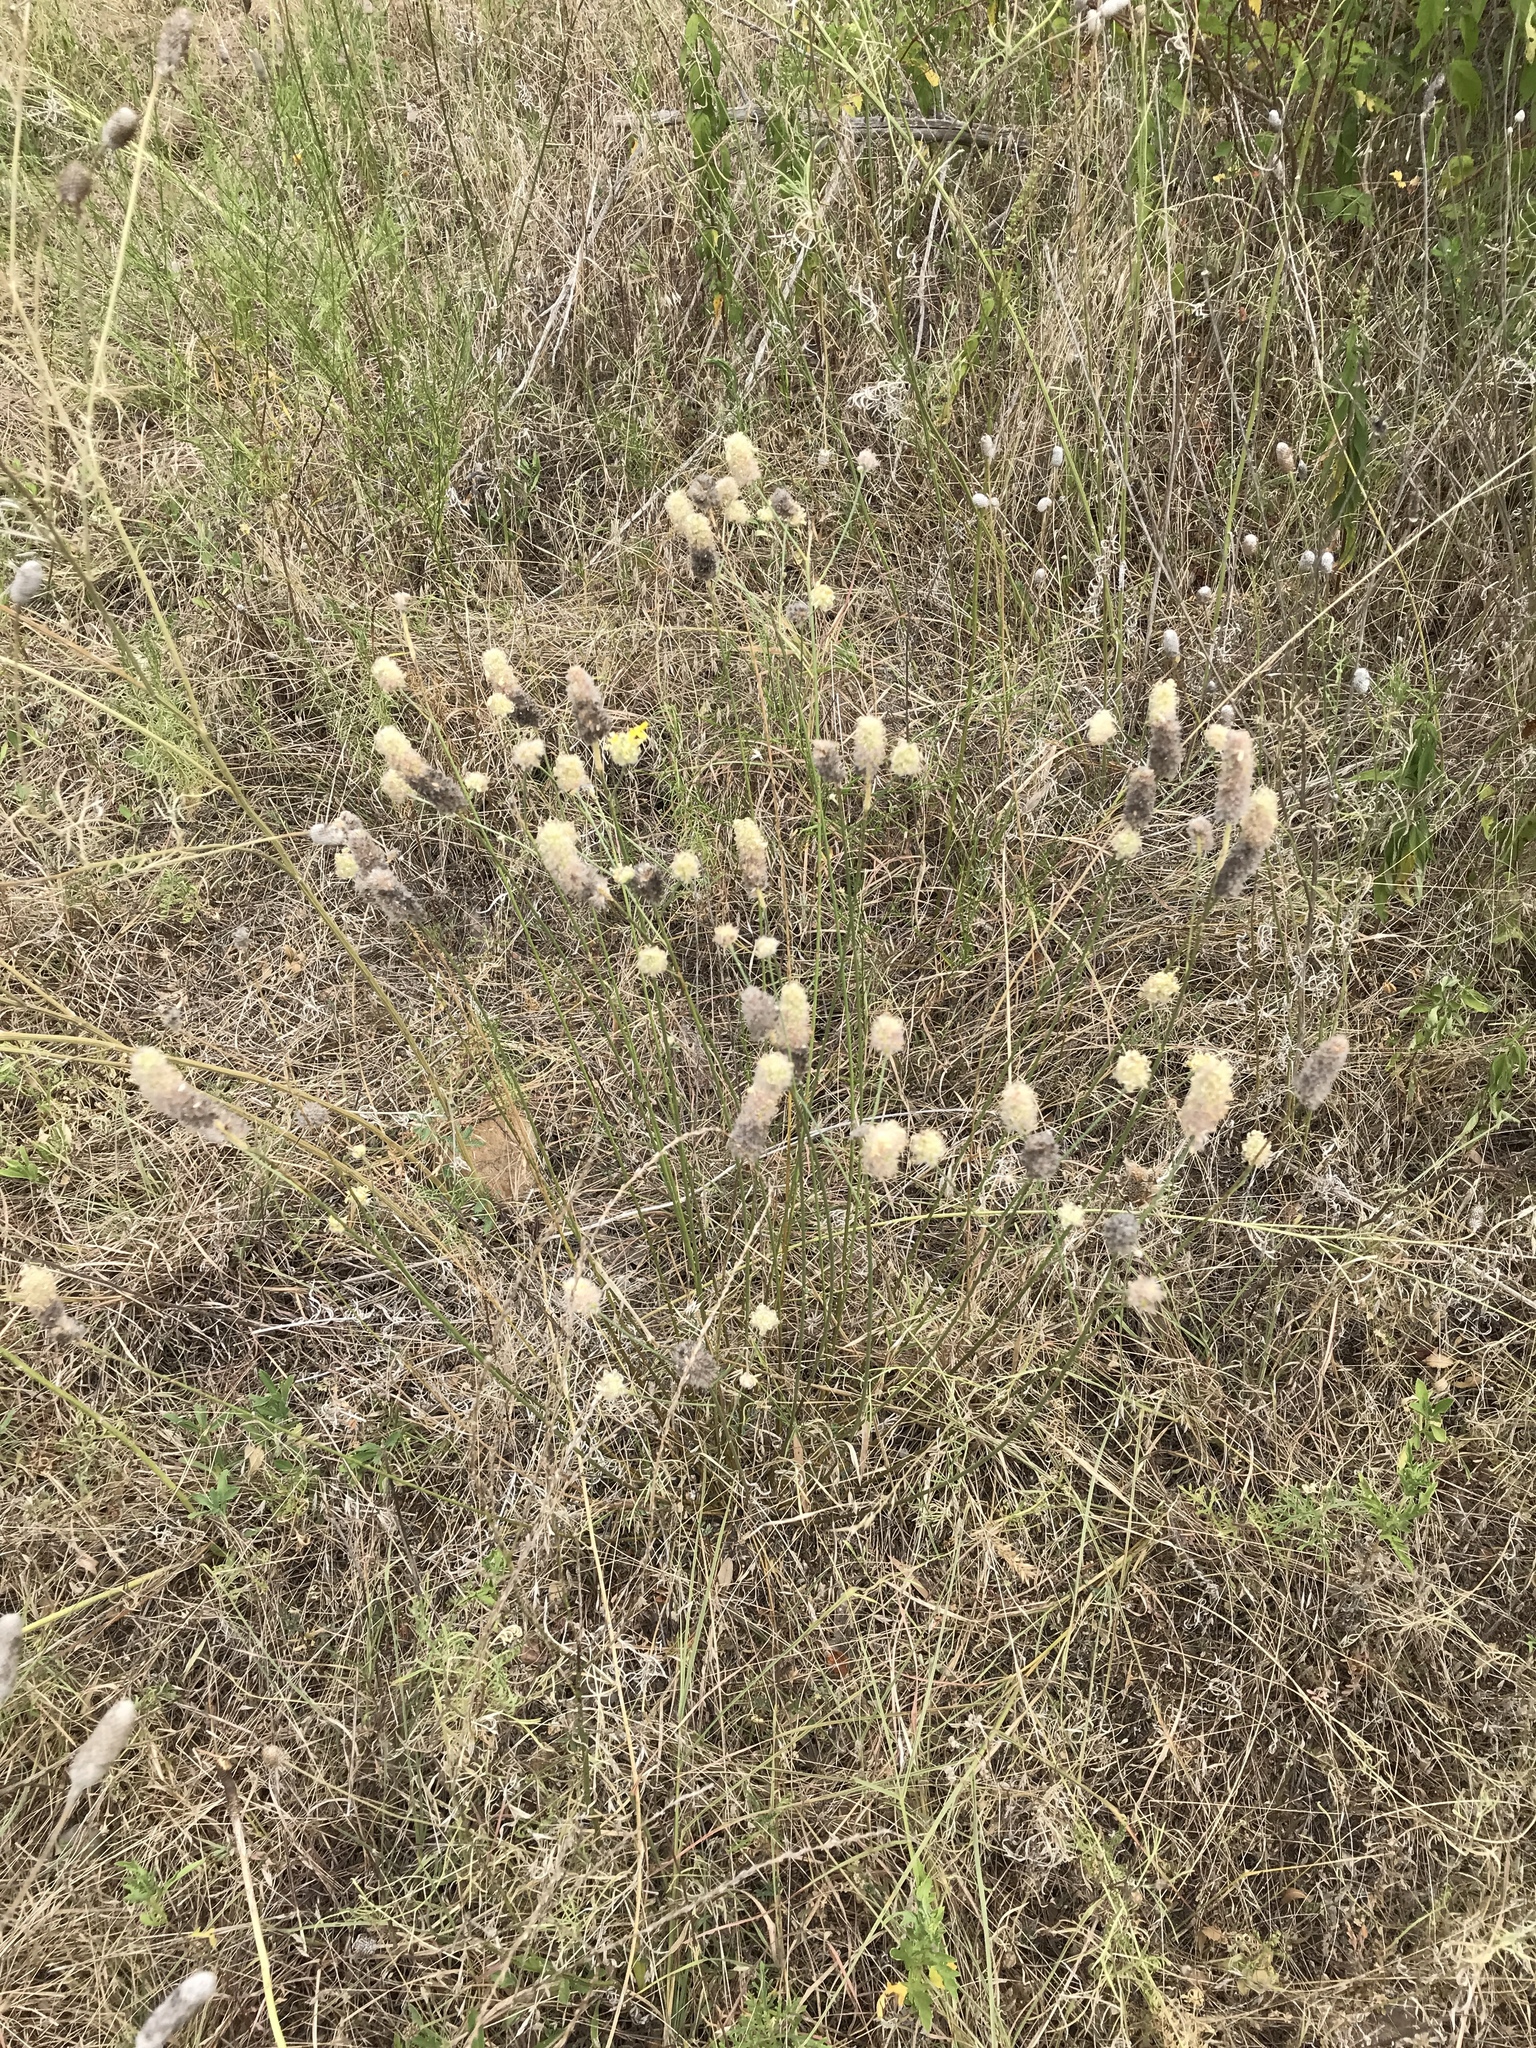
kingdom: Plantae
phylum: Tracheophyta
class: Magnoliopsida
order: Fabales
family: Fabaceae
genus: Dalea
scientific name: Dalea aurea
